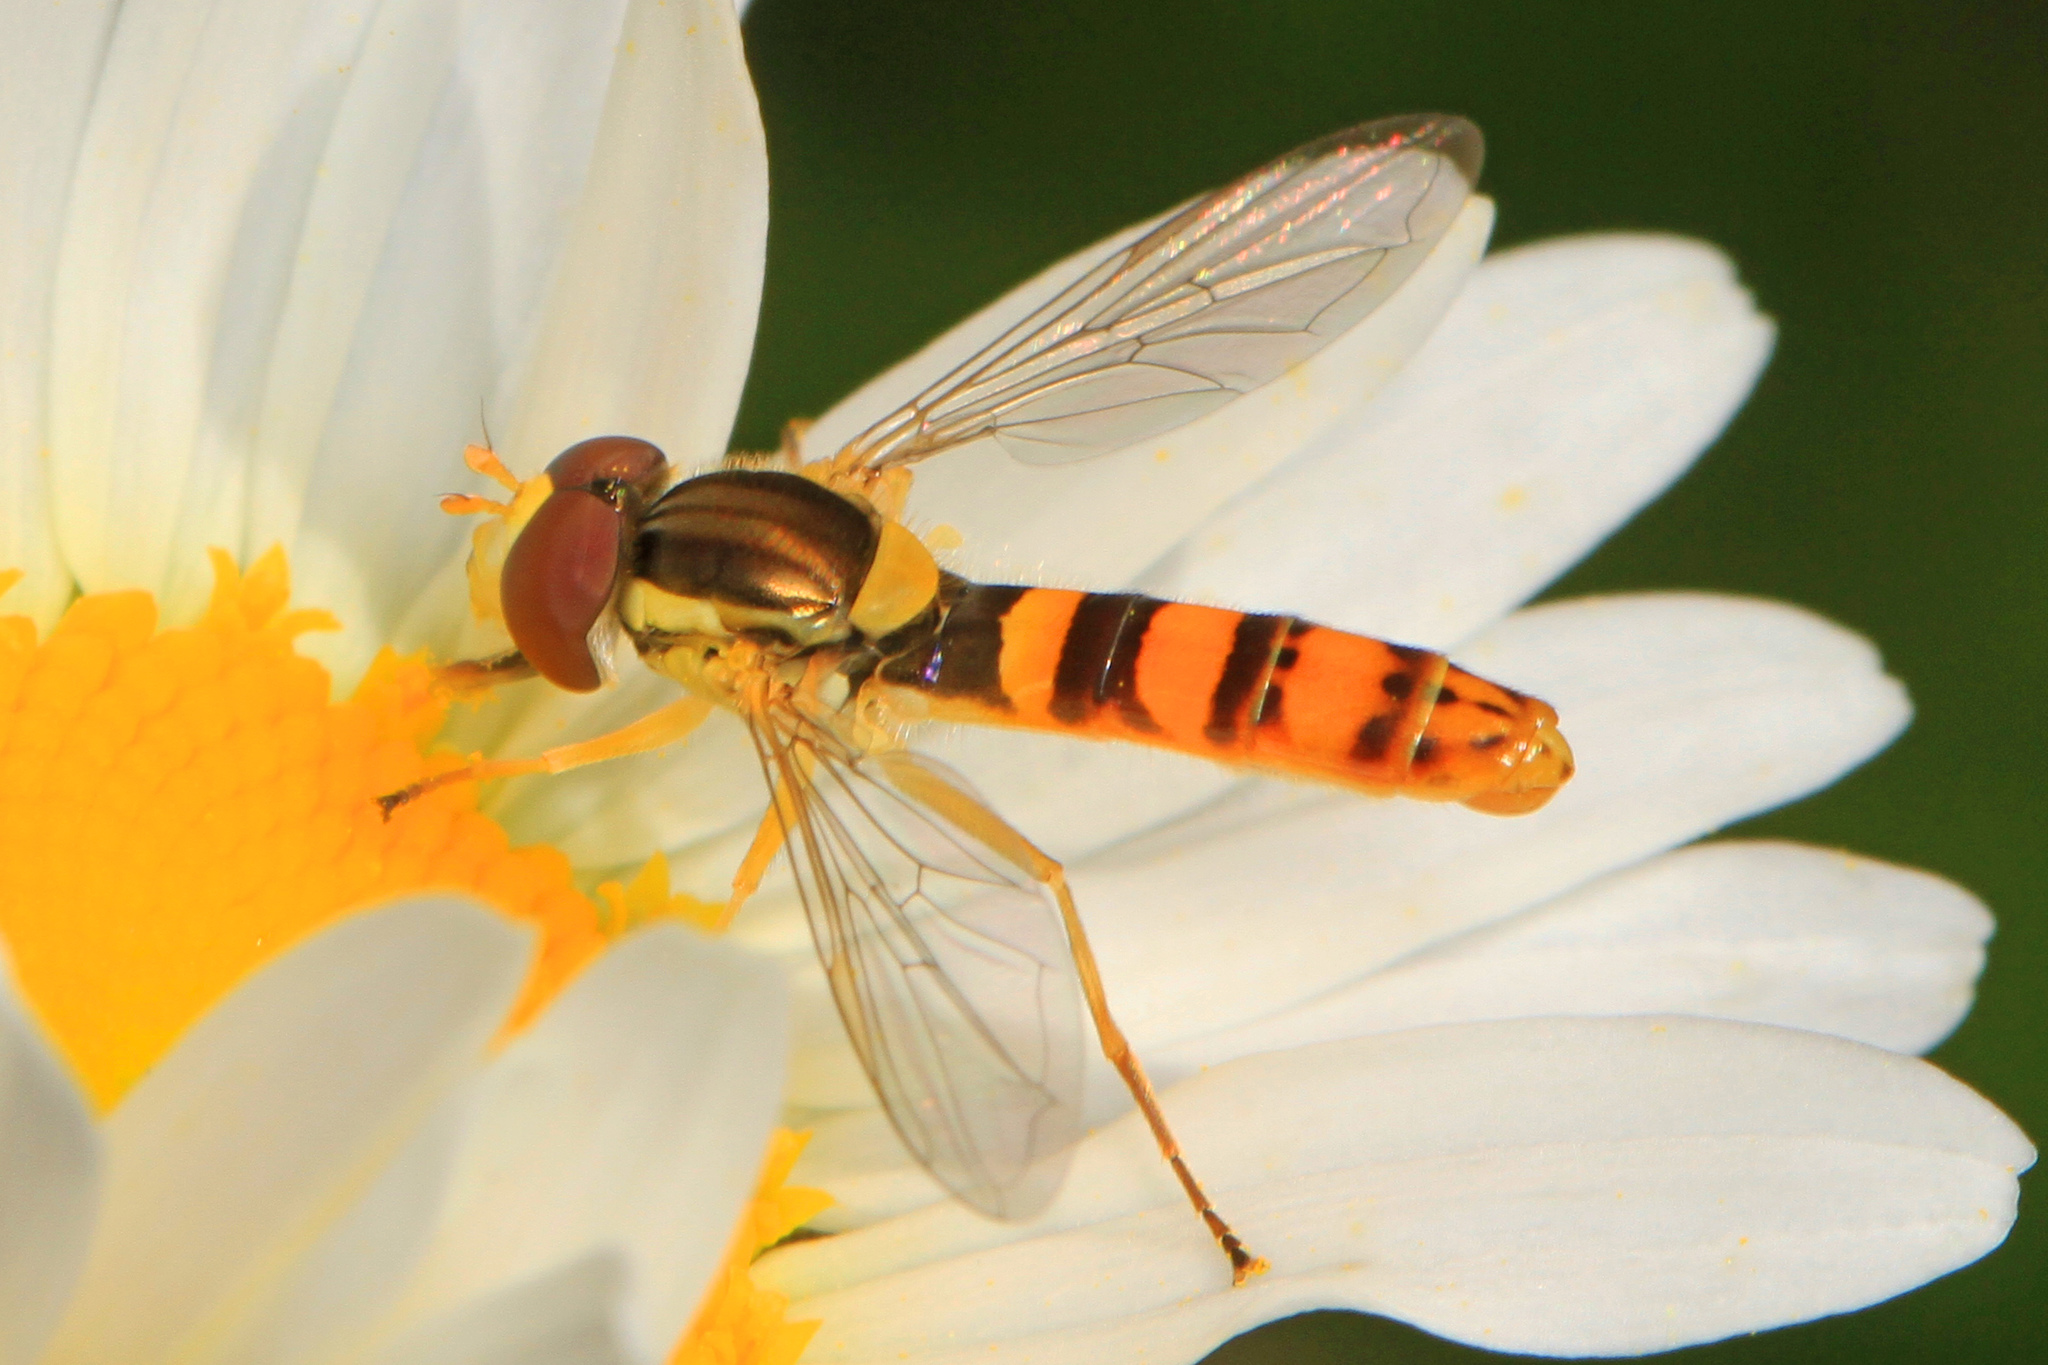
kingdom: Animalia
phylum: Arthropoda
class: Insecta
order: Diptera
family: Syrphidae
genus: Sphaerophoria
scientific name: Sphaerophoria philantha
